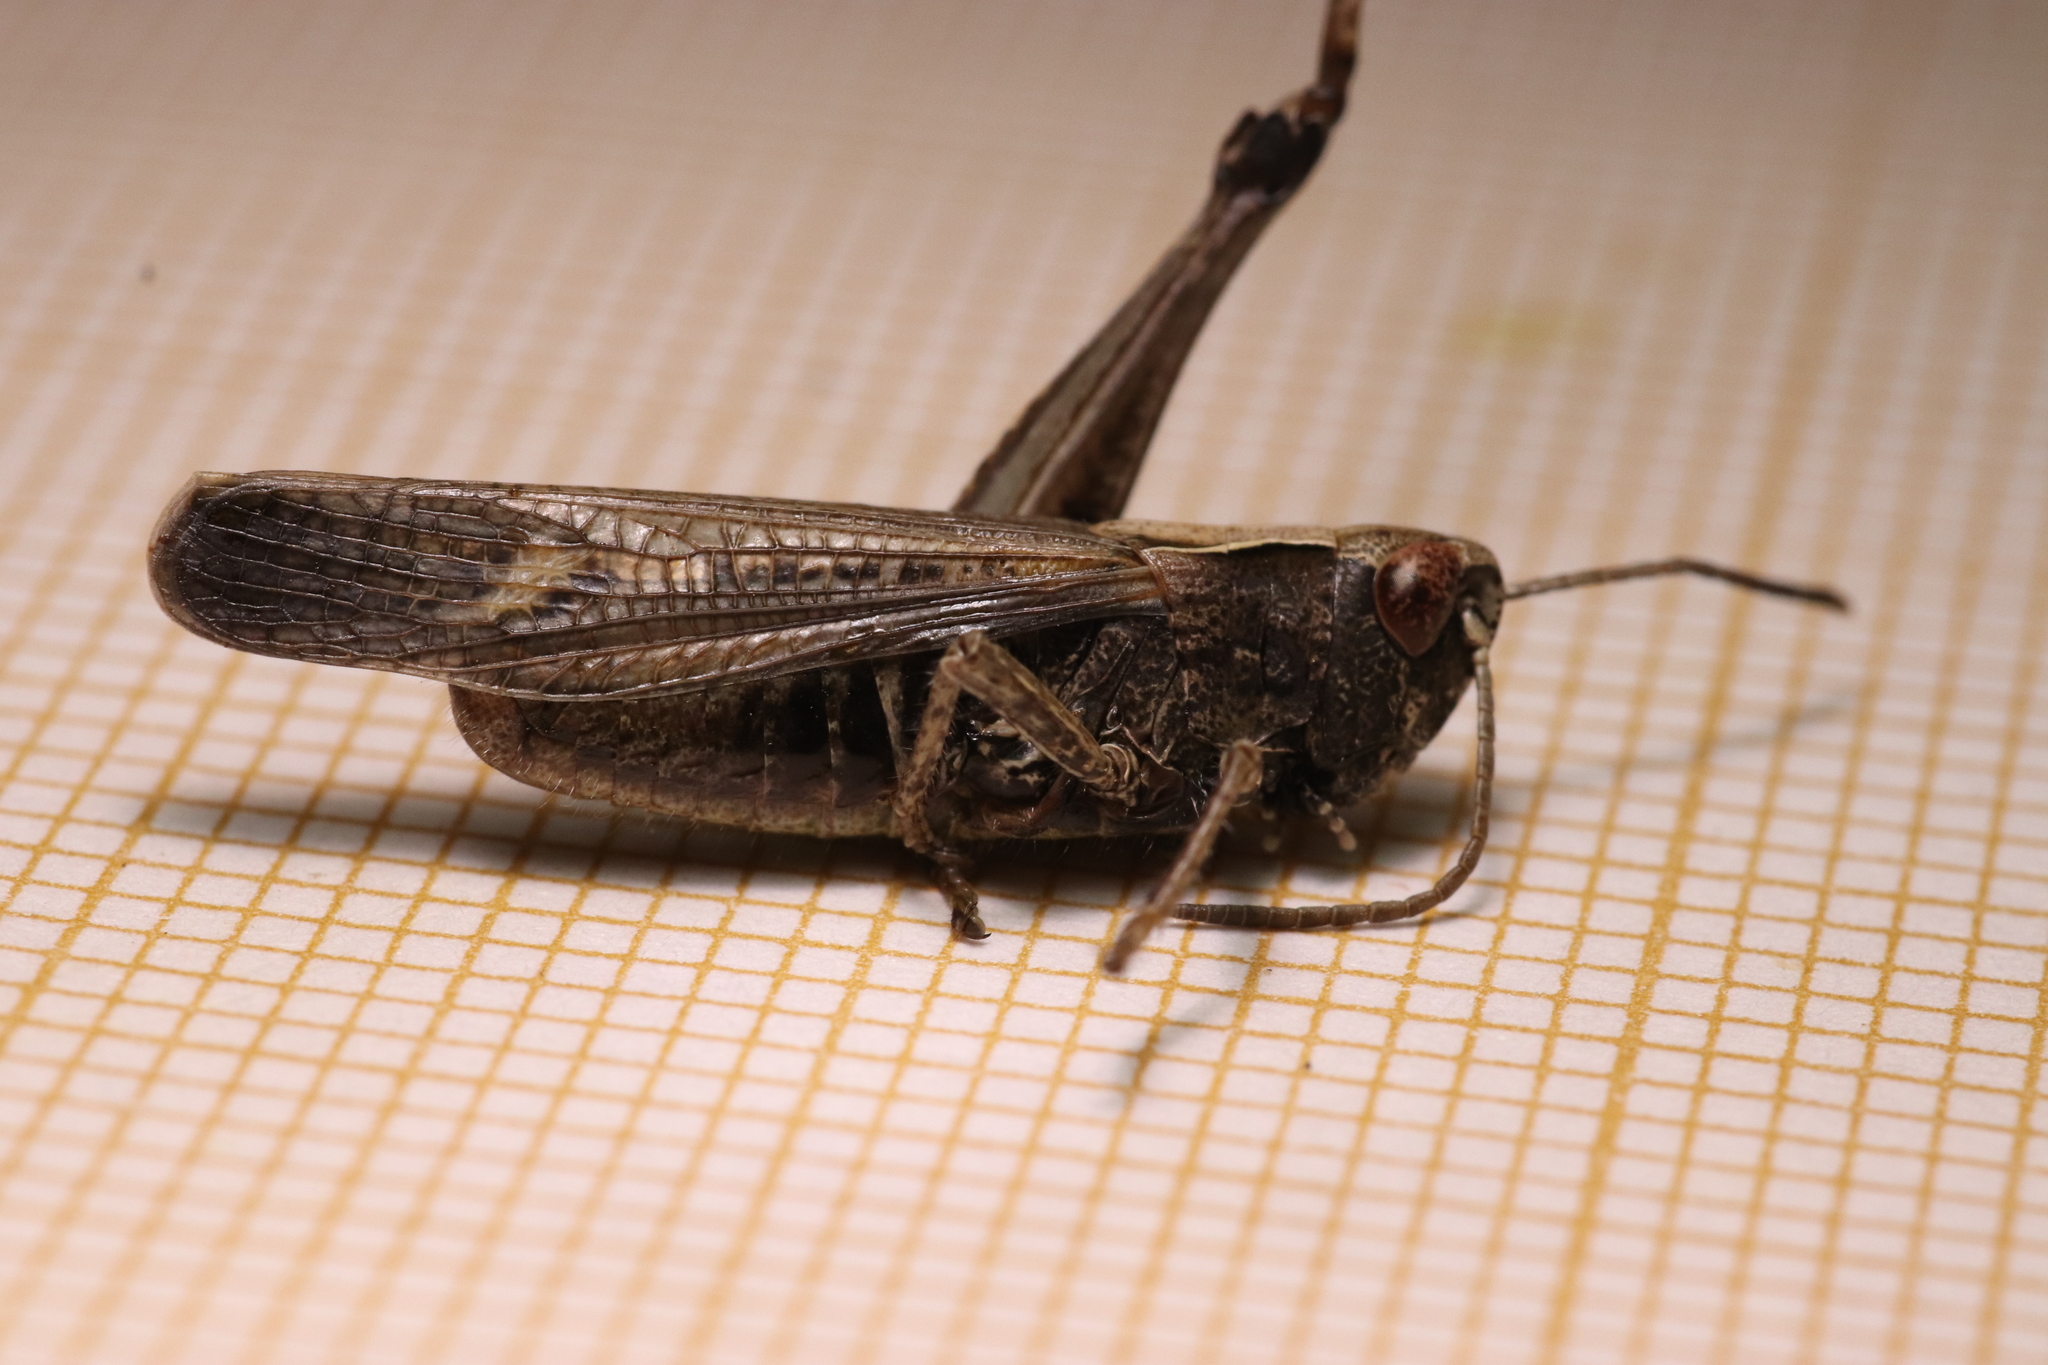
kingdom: Animalia
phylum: Arthropoda
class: Insecta
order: Orthoptera
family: Acrididae
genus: Omocestus
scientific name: Omocestus rufipes
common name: Woodland grasshopper
